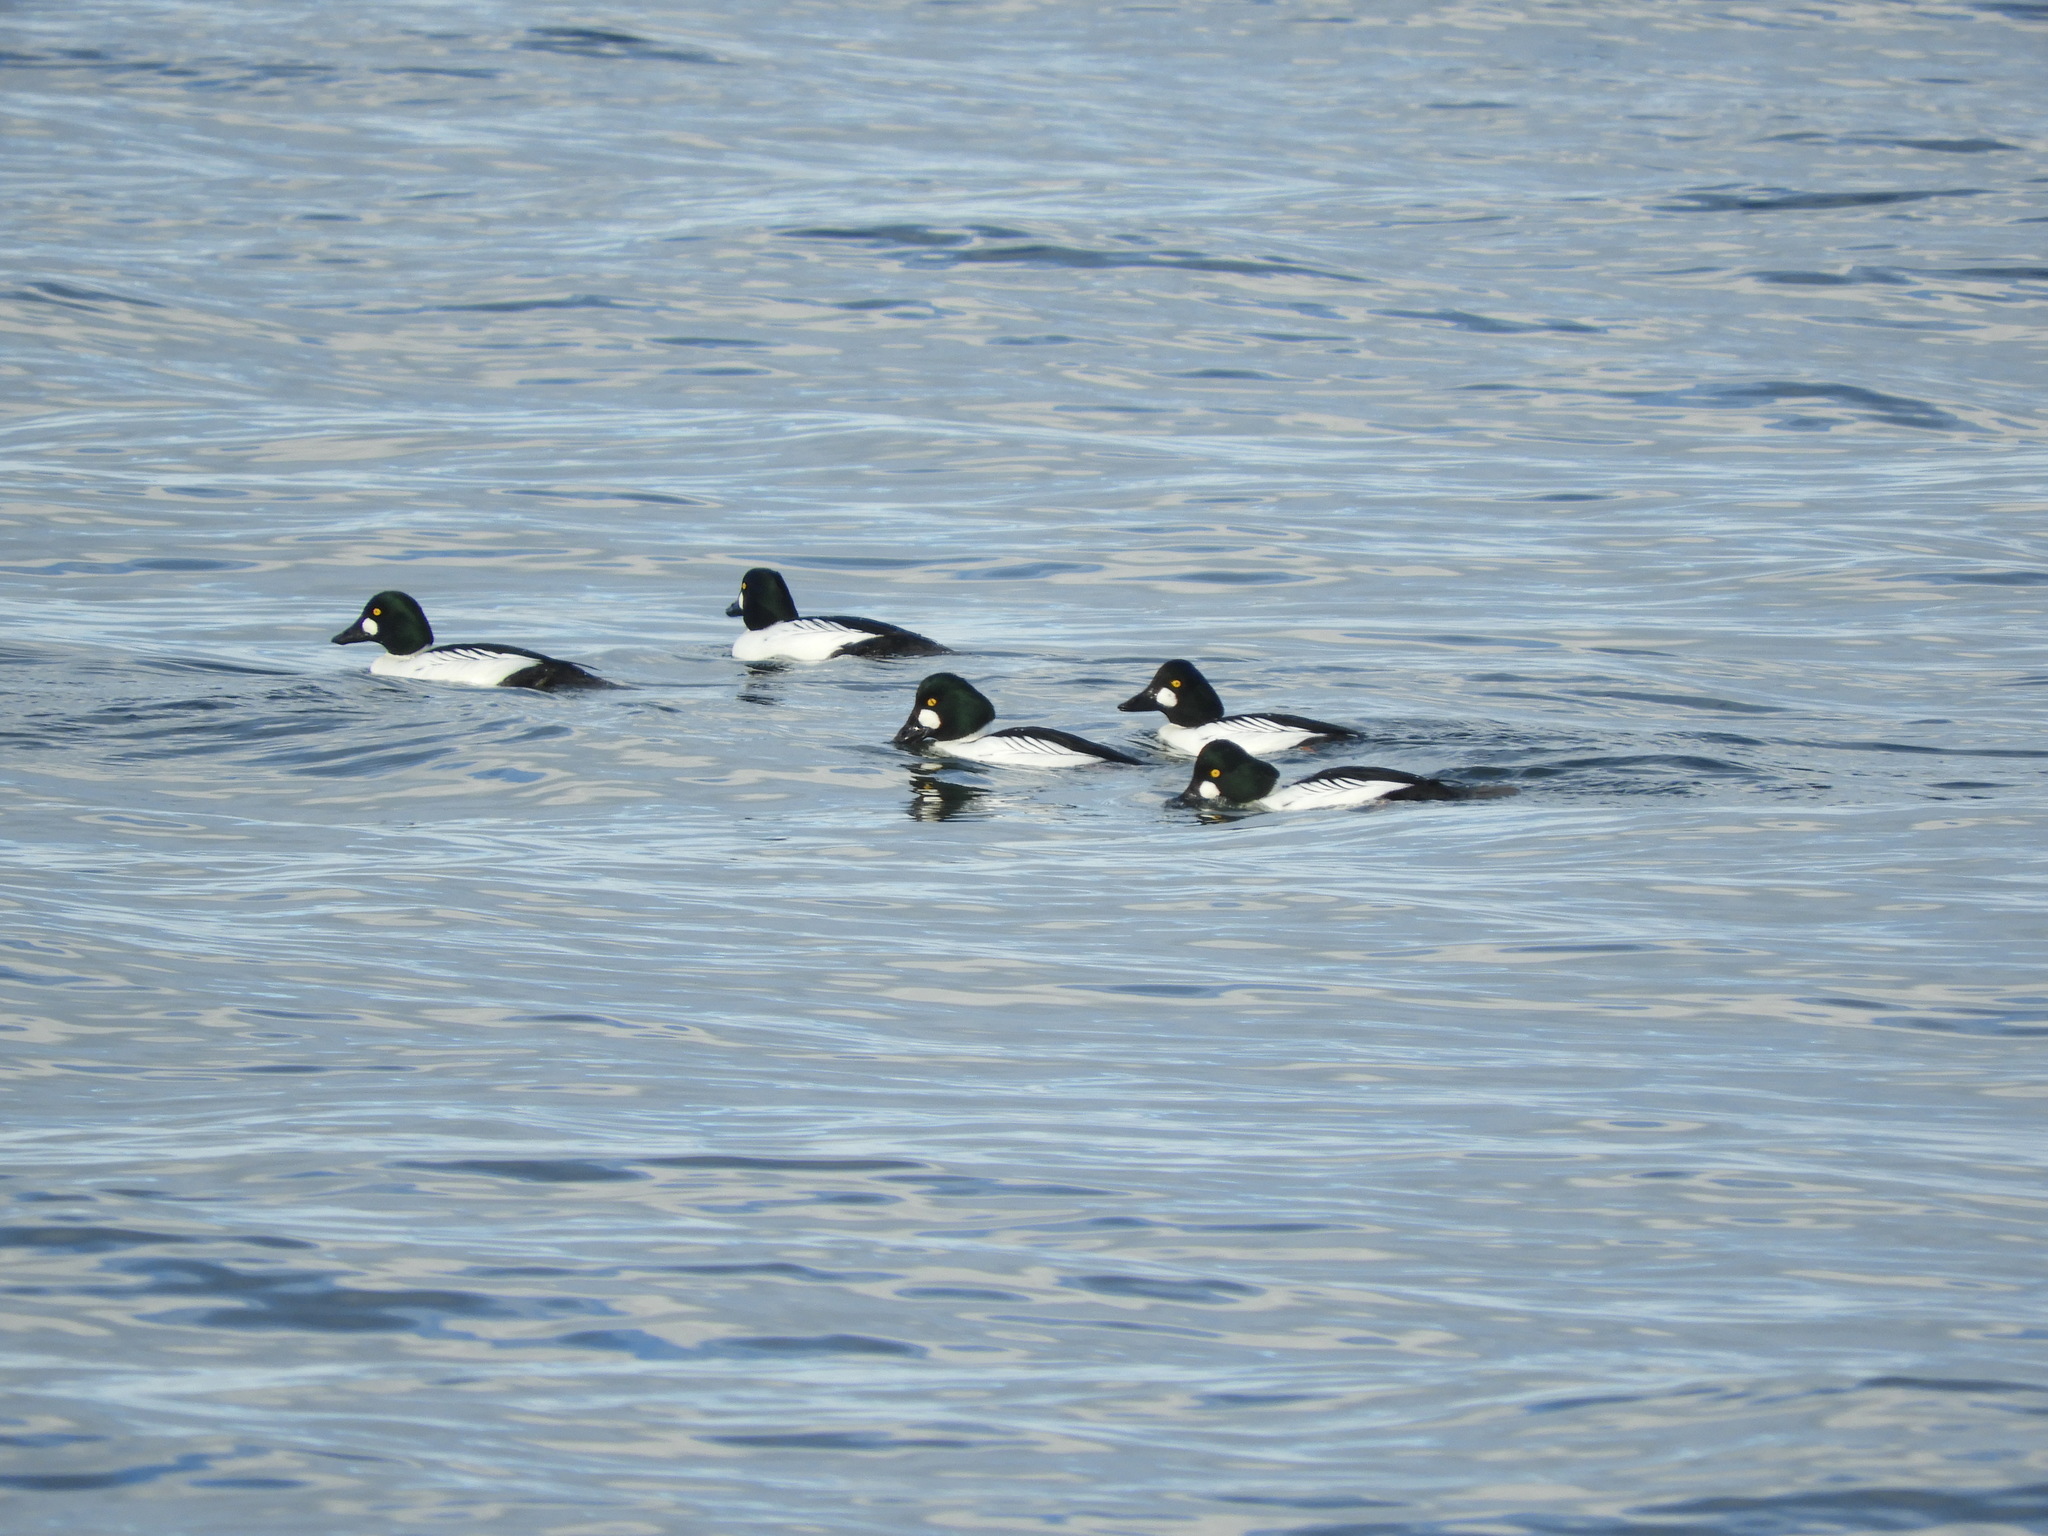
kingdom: Animalia
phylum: Chordata
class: Aves
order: Anseriformes
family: Anatidae
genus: Bucephala
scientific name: Bucephala clangula
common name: Common goldeneye
